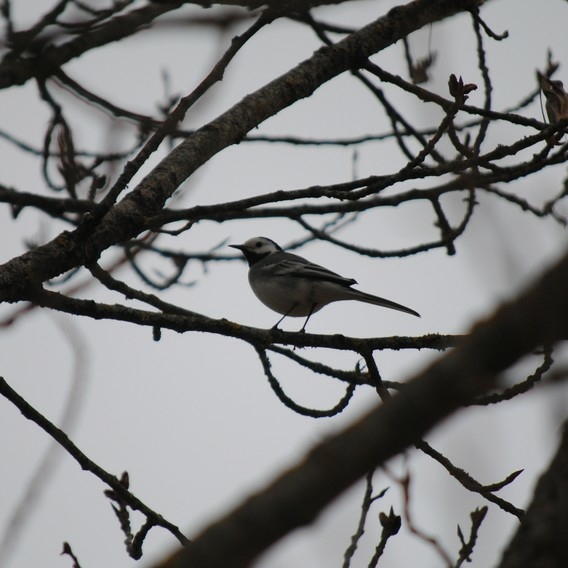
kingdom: Animalia
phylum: Chordata
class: Aves
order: Passeriformes
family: Motacillidae
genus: Motacilla
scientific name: Motacilla alba
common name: White wagtail
